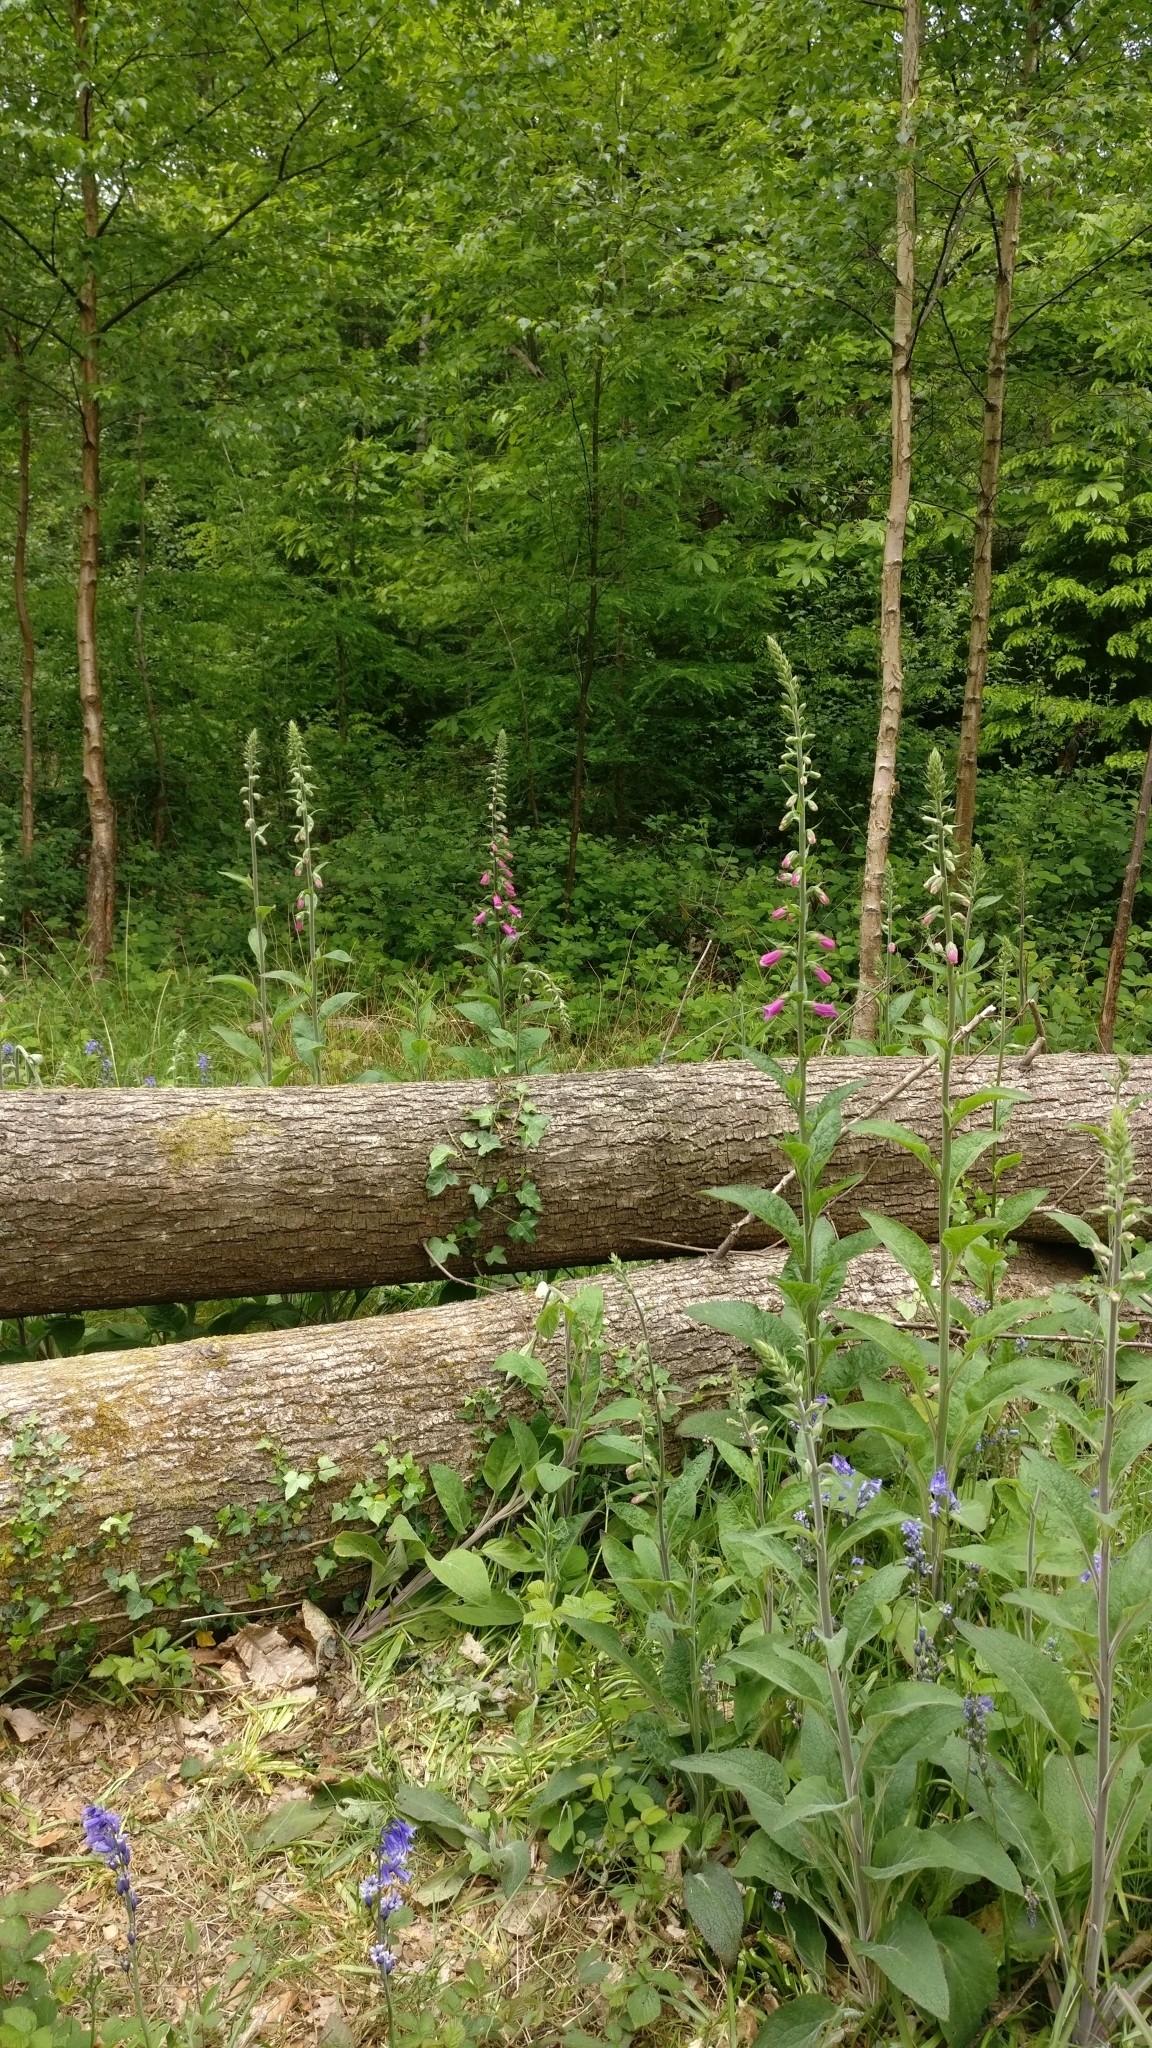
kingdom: Plantae
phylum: Tracheophyta
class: Magnoliopsida
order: Lamiales
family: Plantaginaceae
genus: Digitalis
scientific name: Digitalis purpurea
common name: Foxglove
